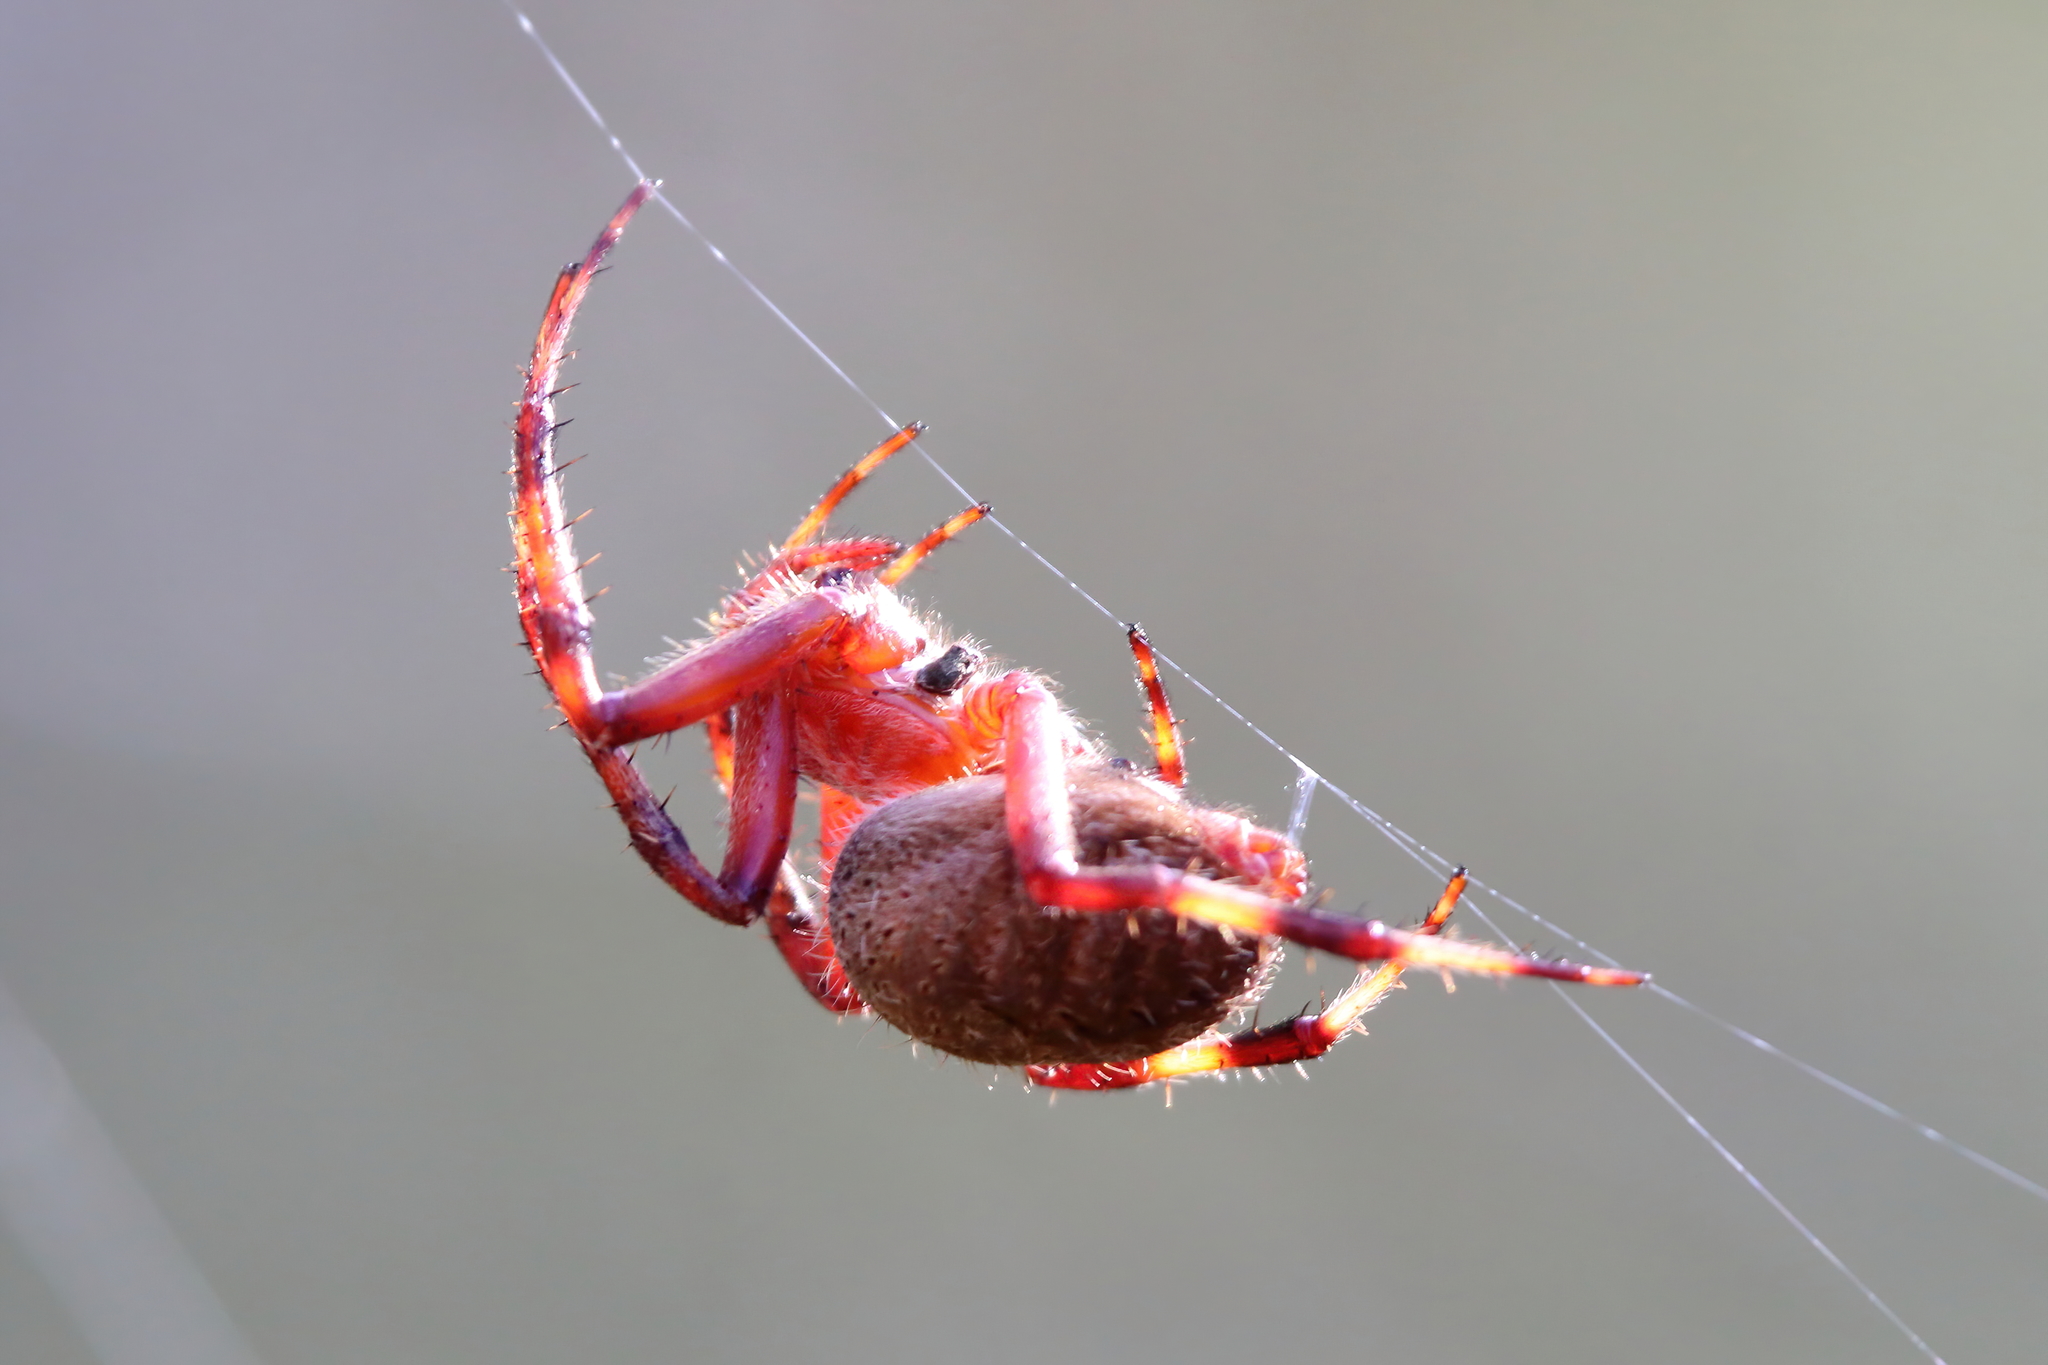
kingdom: Animalia
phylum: Arthropoda
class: Arachnida
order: Araneae
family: Araneidae
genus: Neoscona
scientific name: Neoscona crucifera
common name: Spotted orbweaver
